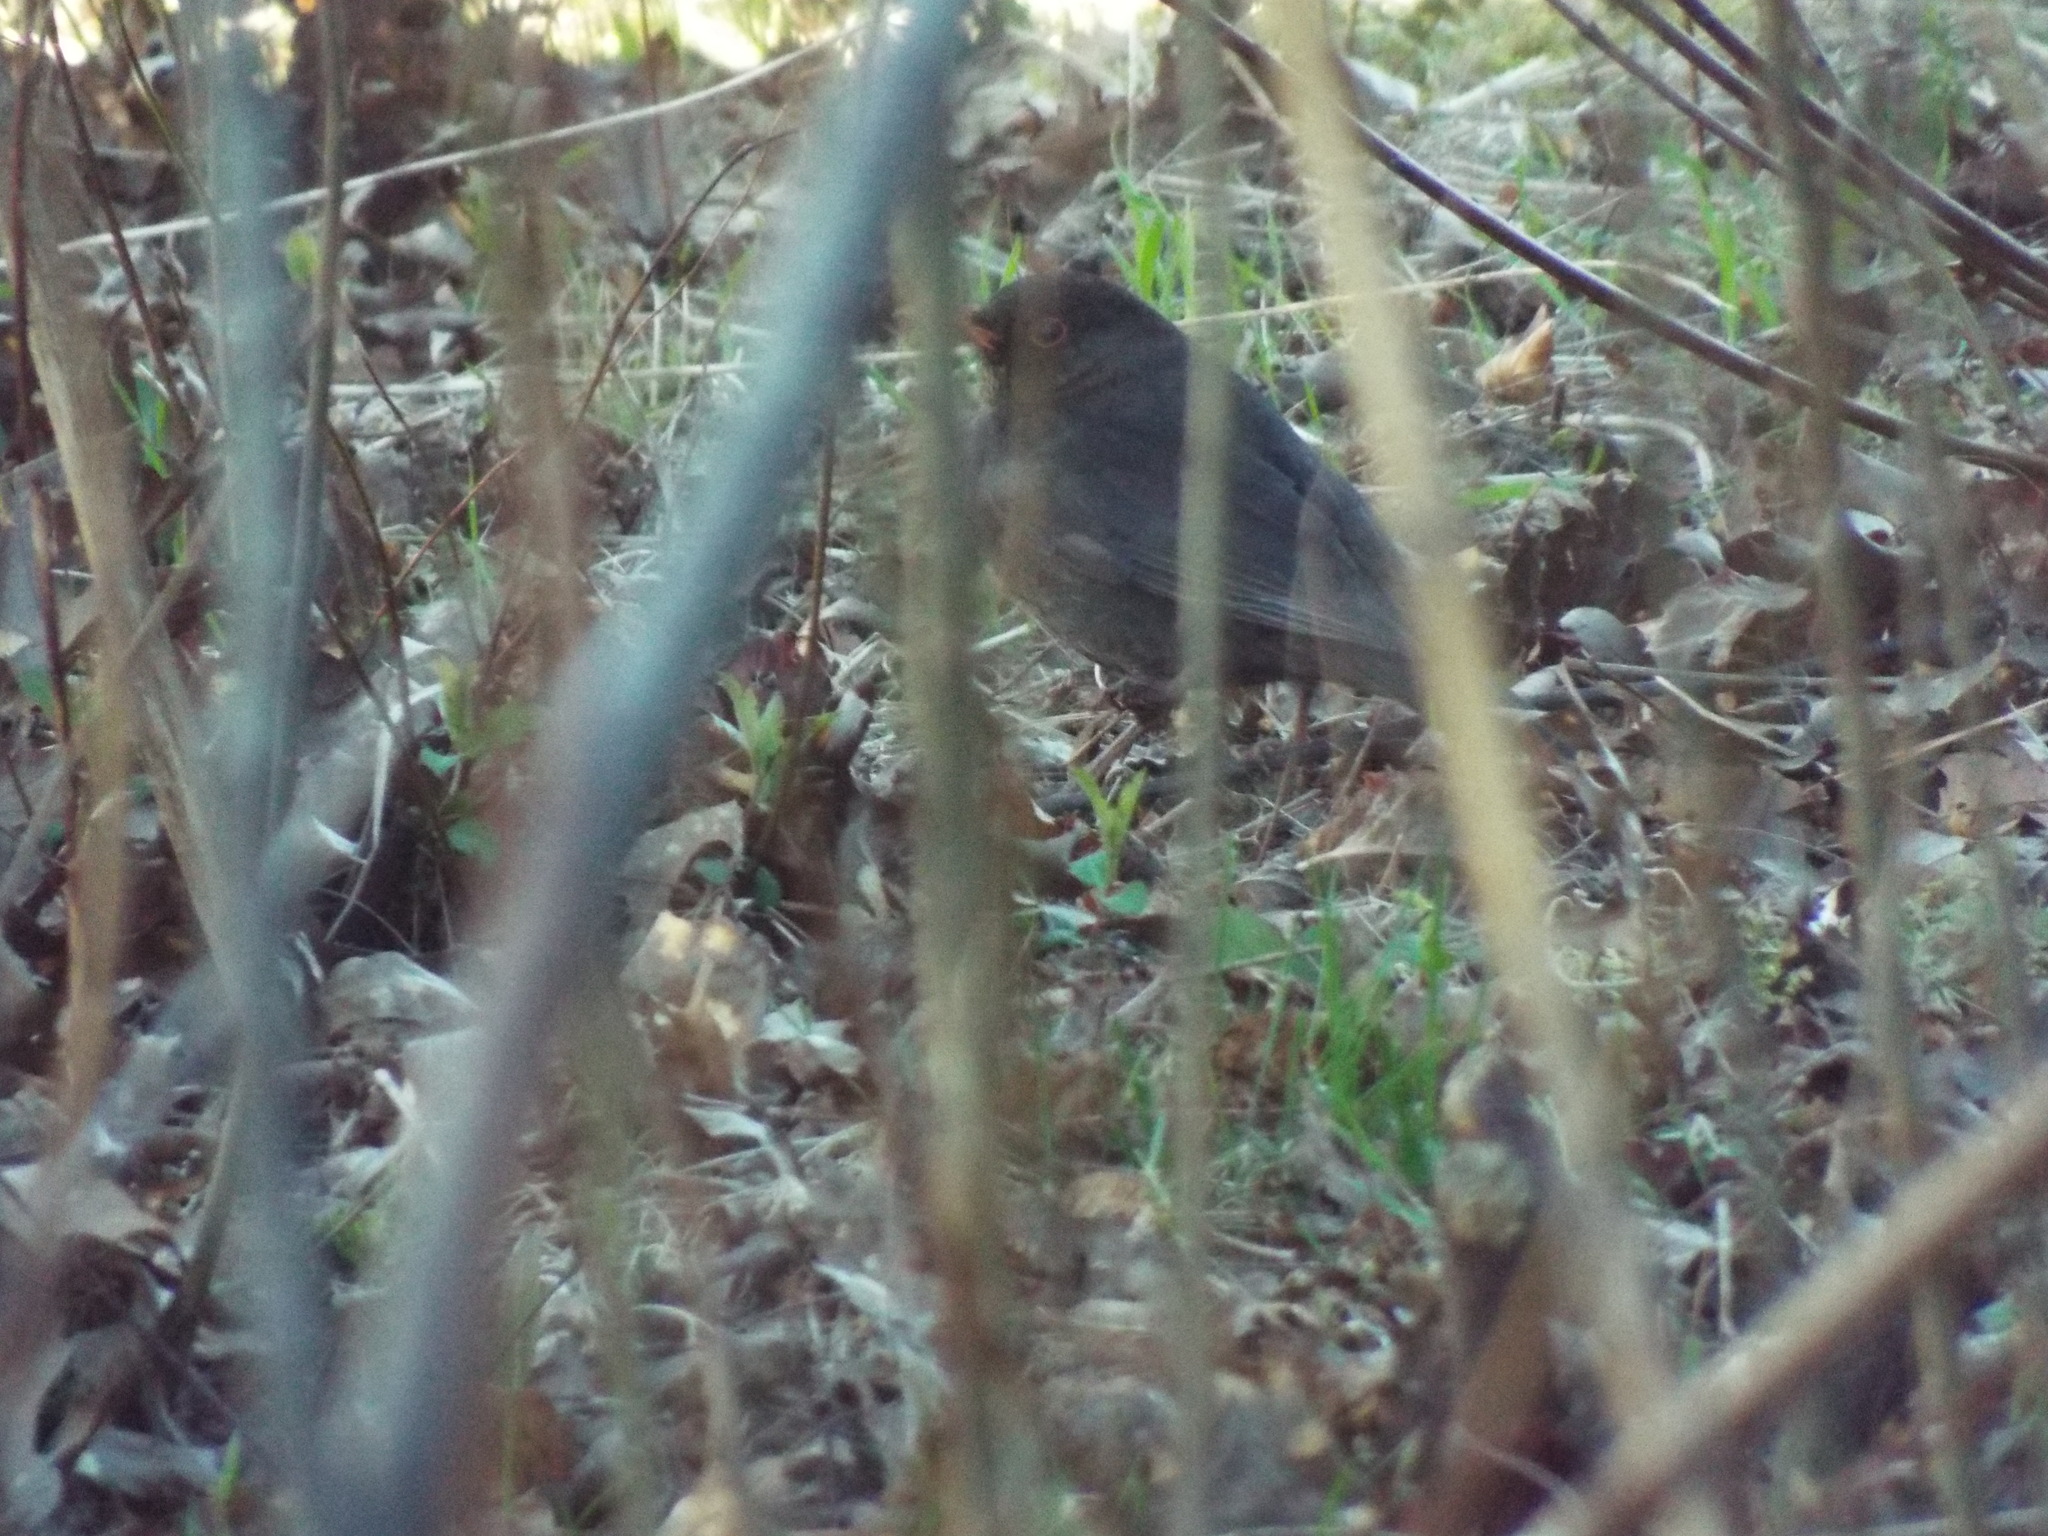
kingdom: Animalia
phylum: Chordata
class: Aves
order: Passeriformes
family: Turdidae
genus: Turdus
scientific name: Turdus merula
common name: Common blackbird
